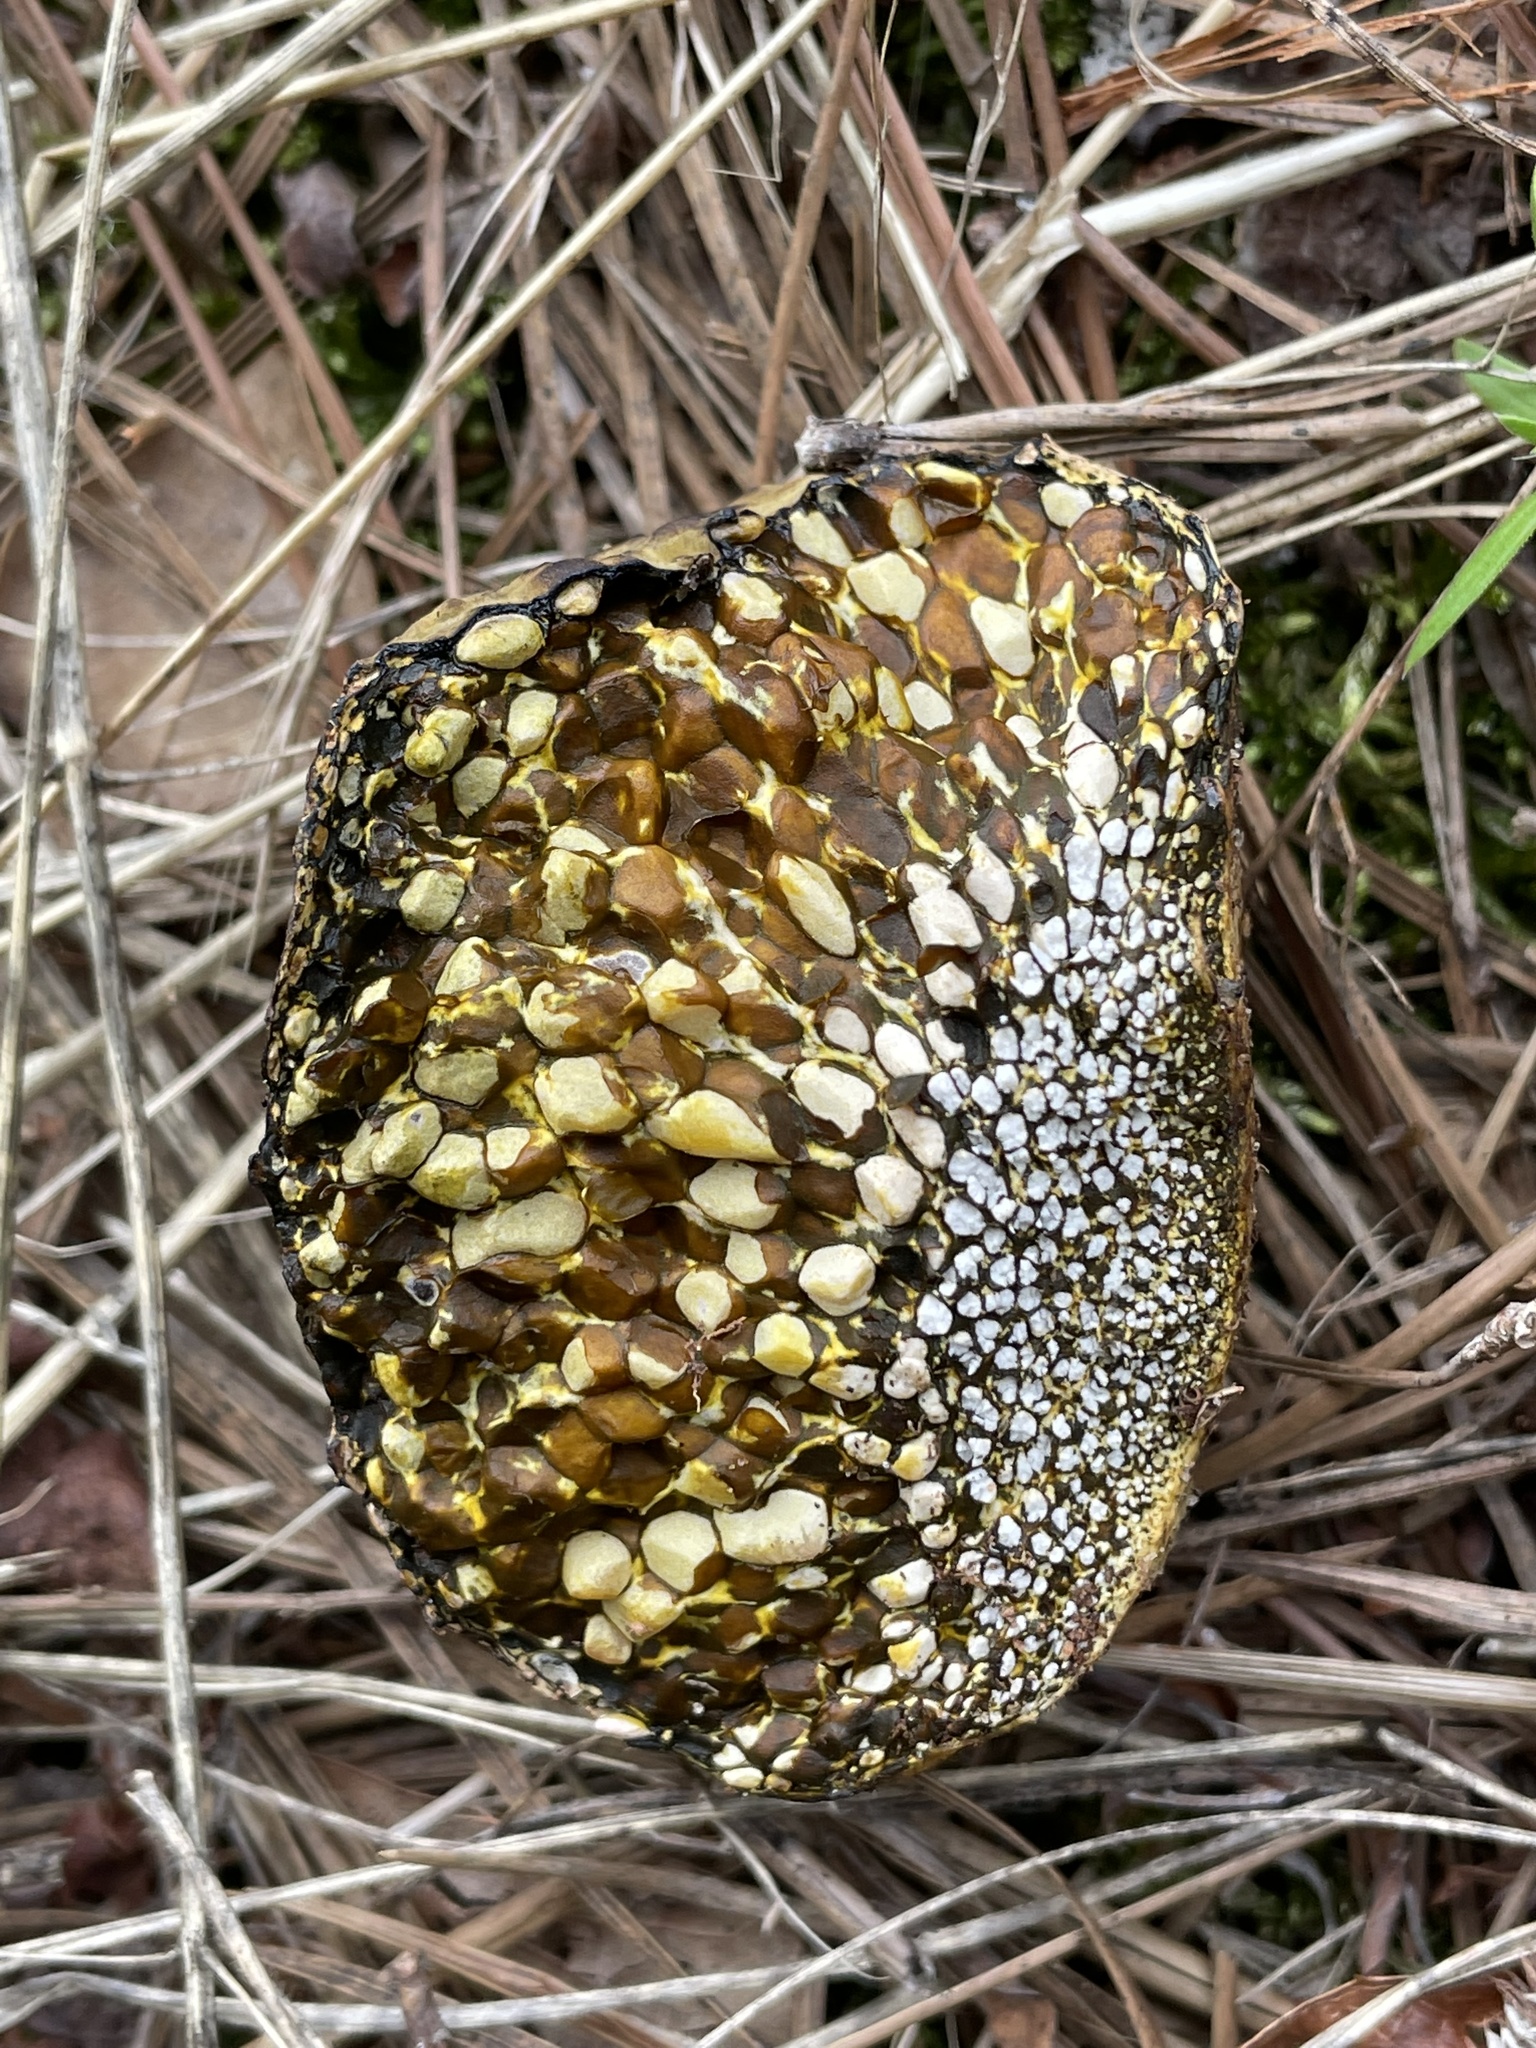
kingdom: Fungi
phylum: Basidiomycota
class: Agaricomycetes
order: Boletales
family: Sclerodermataceae
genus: Pisolithus
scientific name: Pisolithus arhizus
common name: Dyeball
